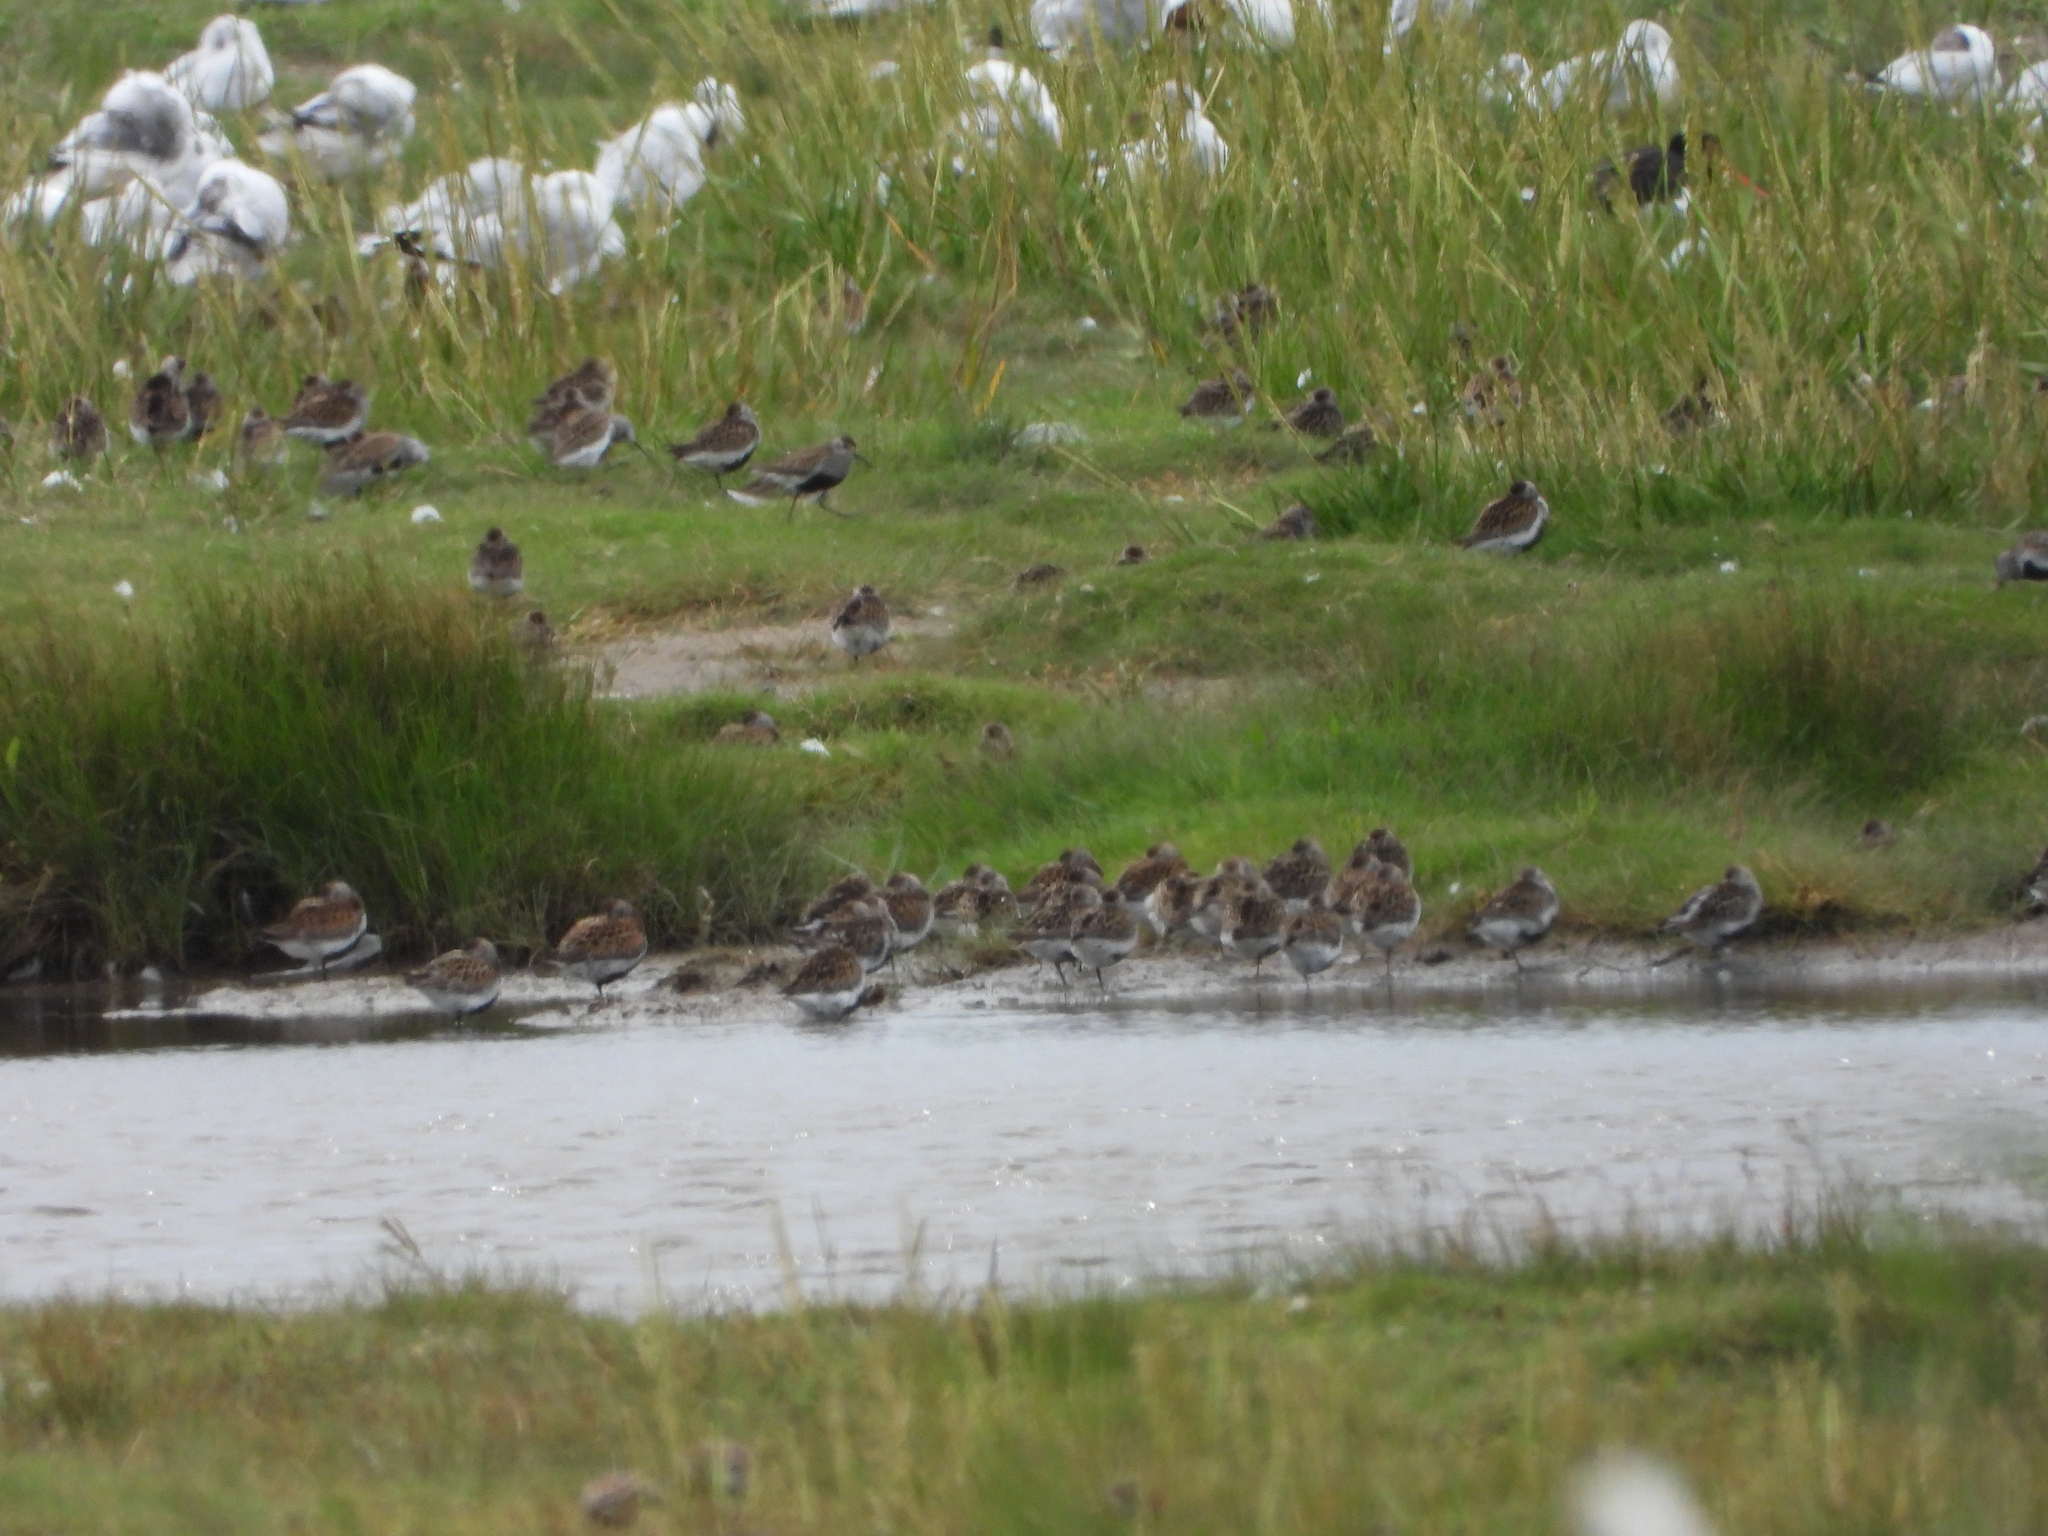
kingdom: Animalia
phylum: Chordata
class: Aves
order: Charadriiformes
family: Scolopacidae
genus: Calidris
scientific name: Calidris alpina
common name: Dunlin
